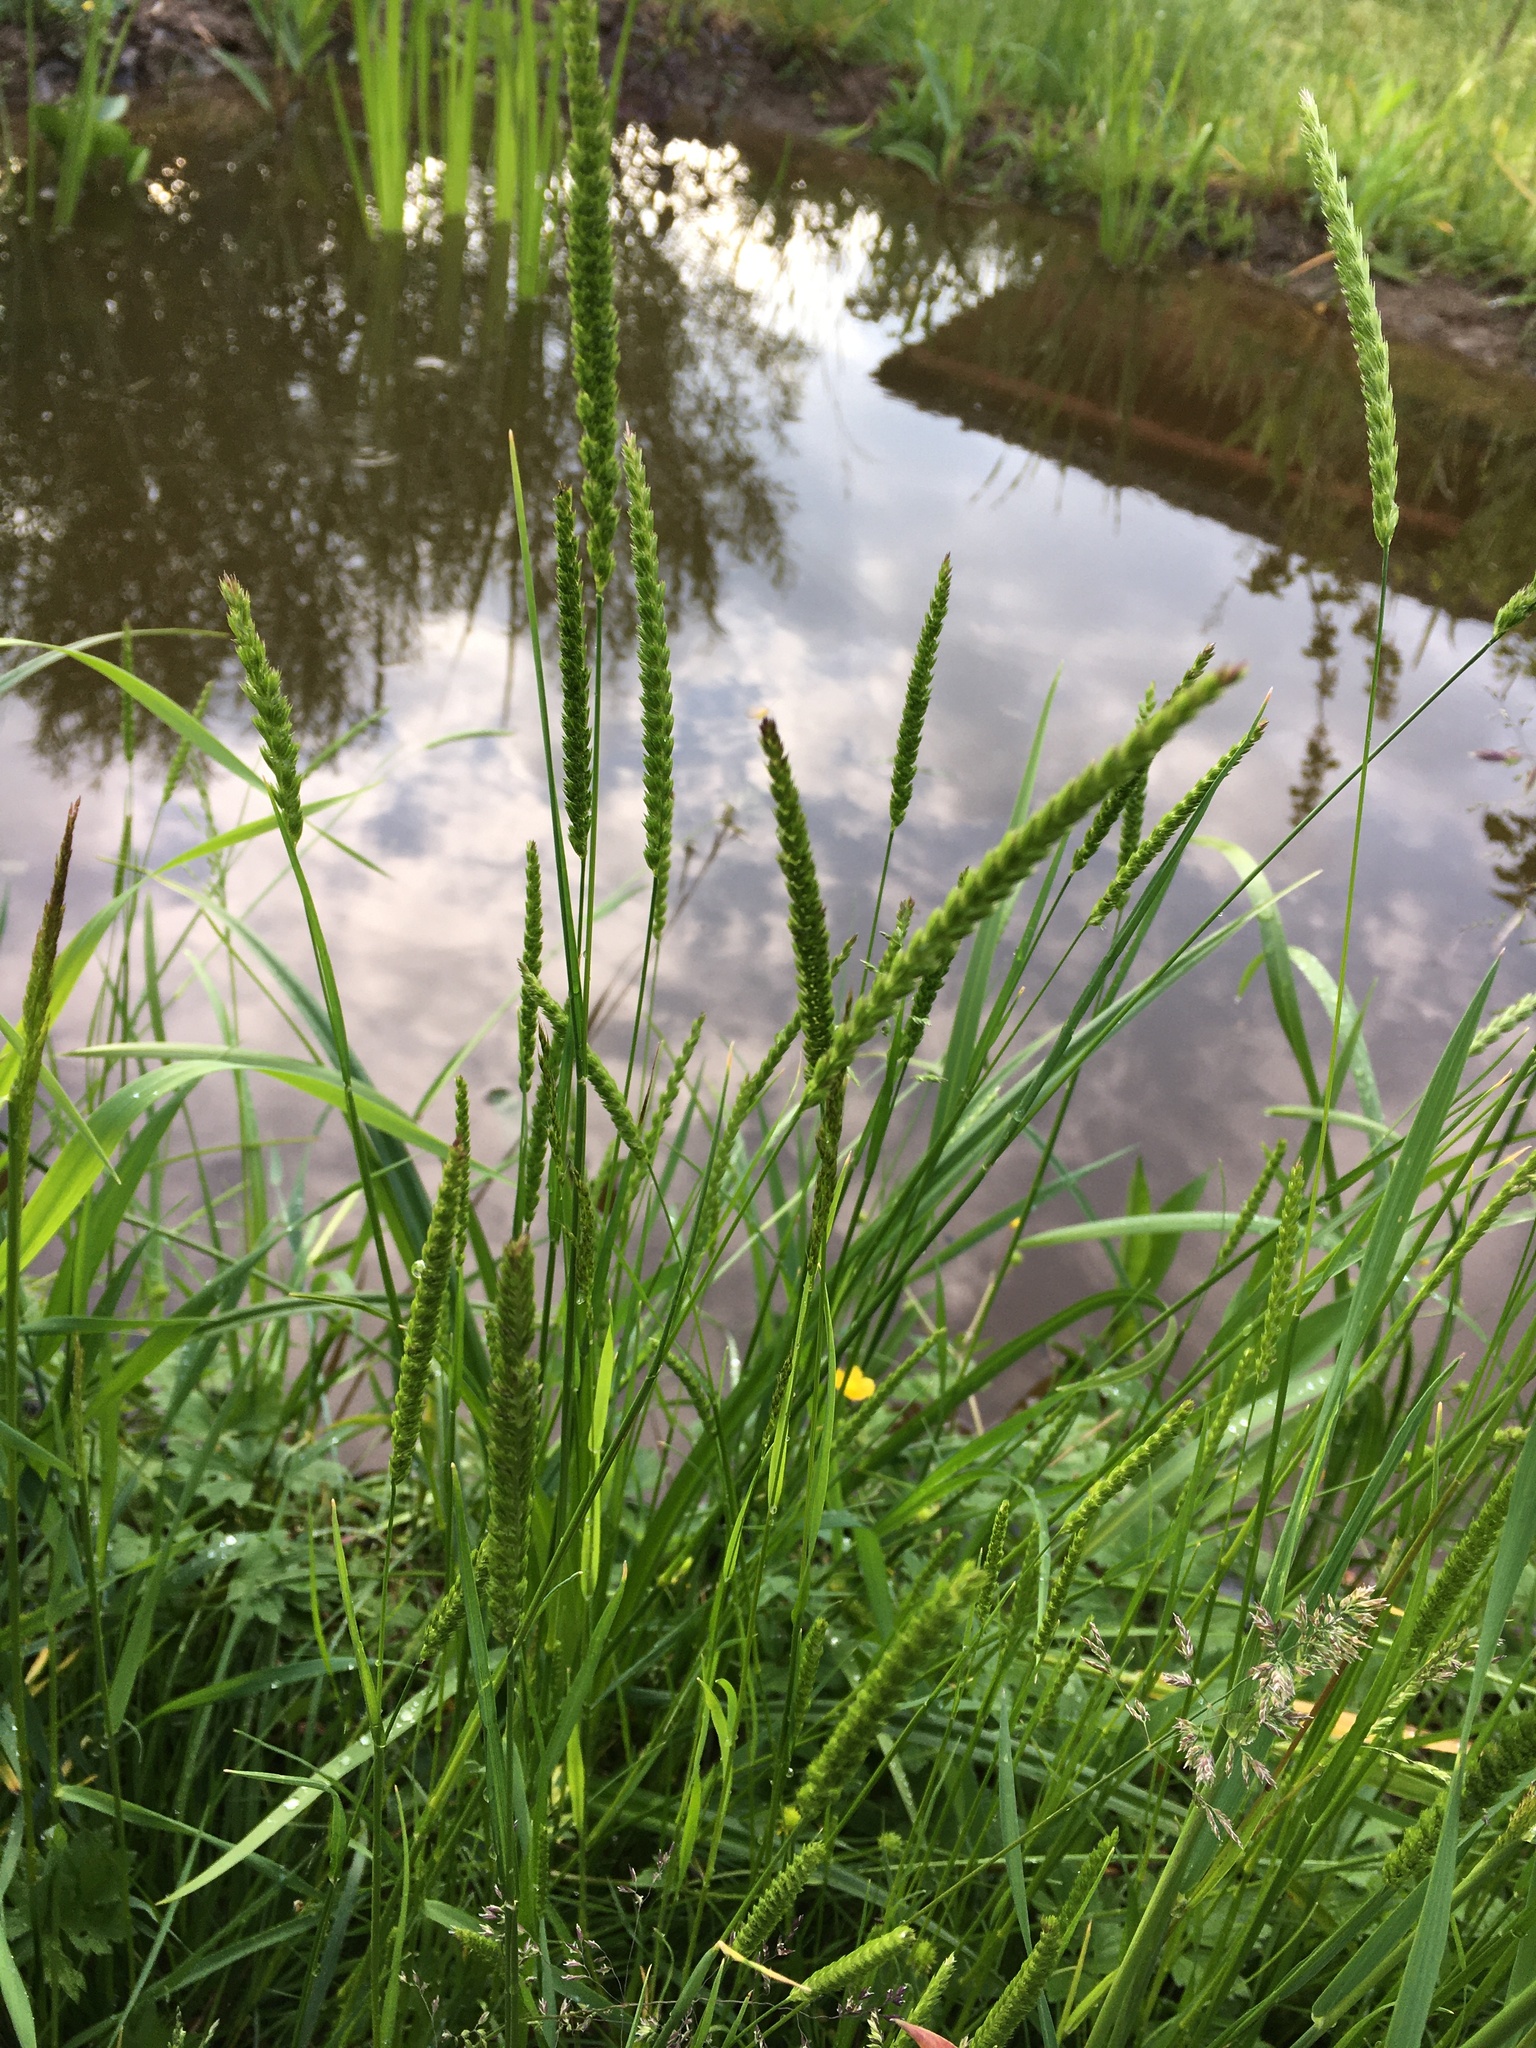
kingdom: Plantae
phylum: Tracheophyta
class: Liliopsida
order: Poales
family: Poaceae
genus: Cynosurus
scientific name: Cynosurus cristatus
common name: Crested dog's-tail
